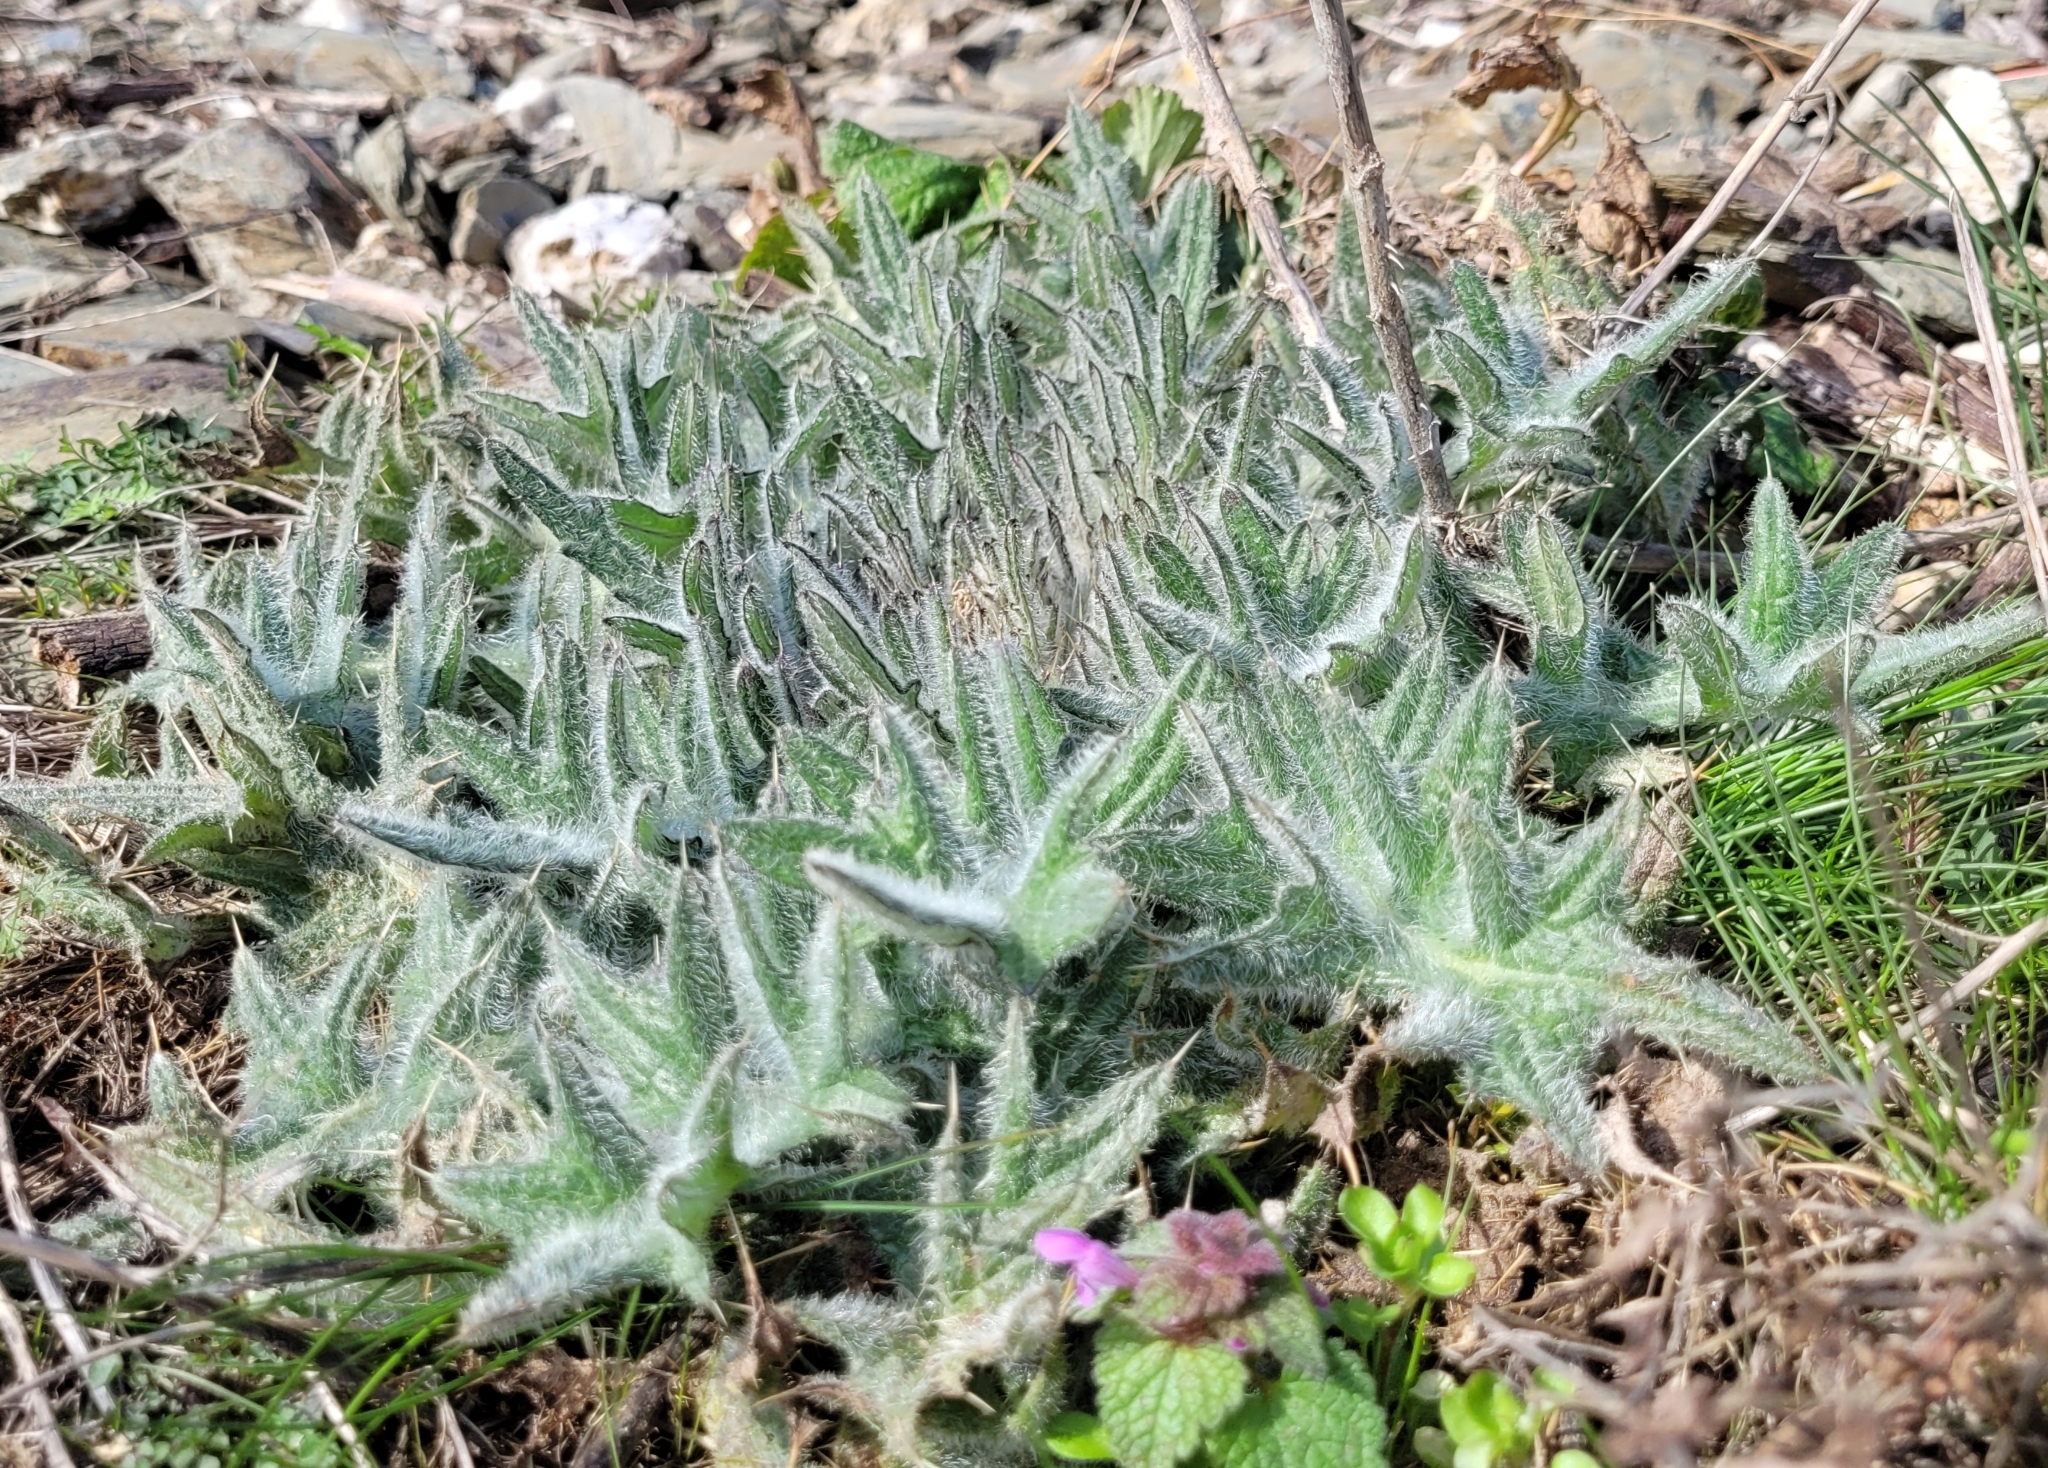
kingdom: Plantae
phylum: Tracheophyta
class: Magnoliopsida
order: Asterales
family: Asteraceae
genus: Cirsium
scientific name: Cirsium vulgare
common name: Bull thistle
